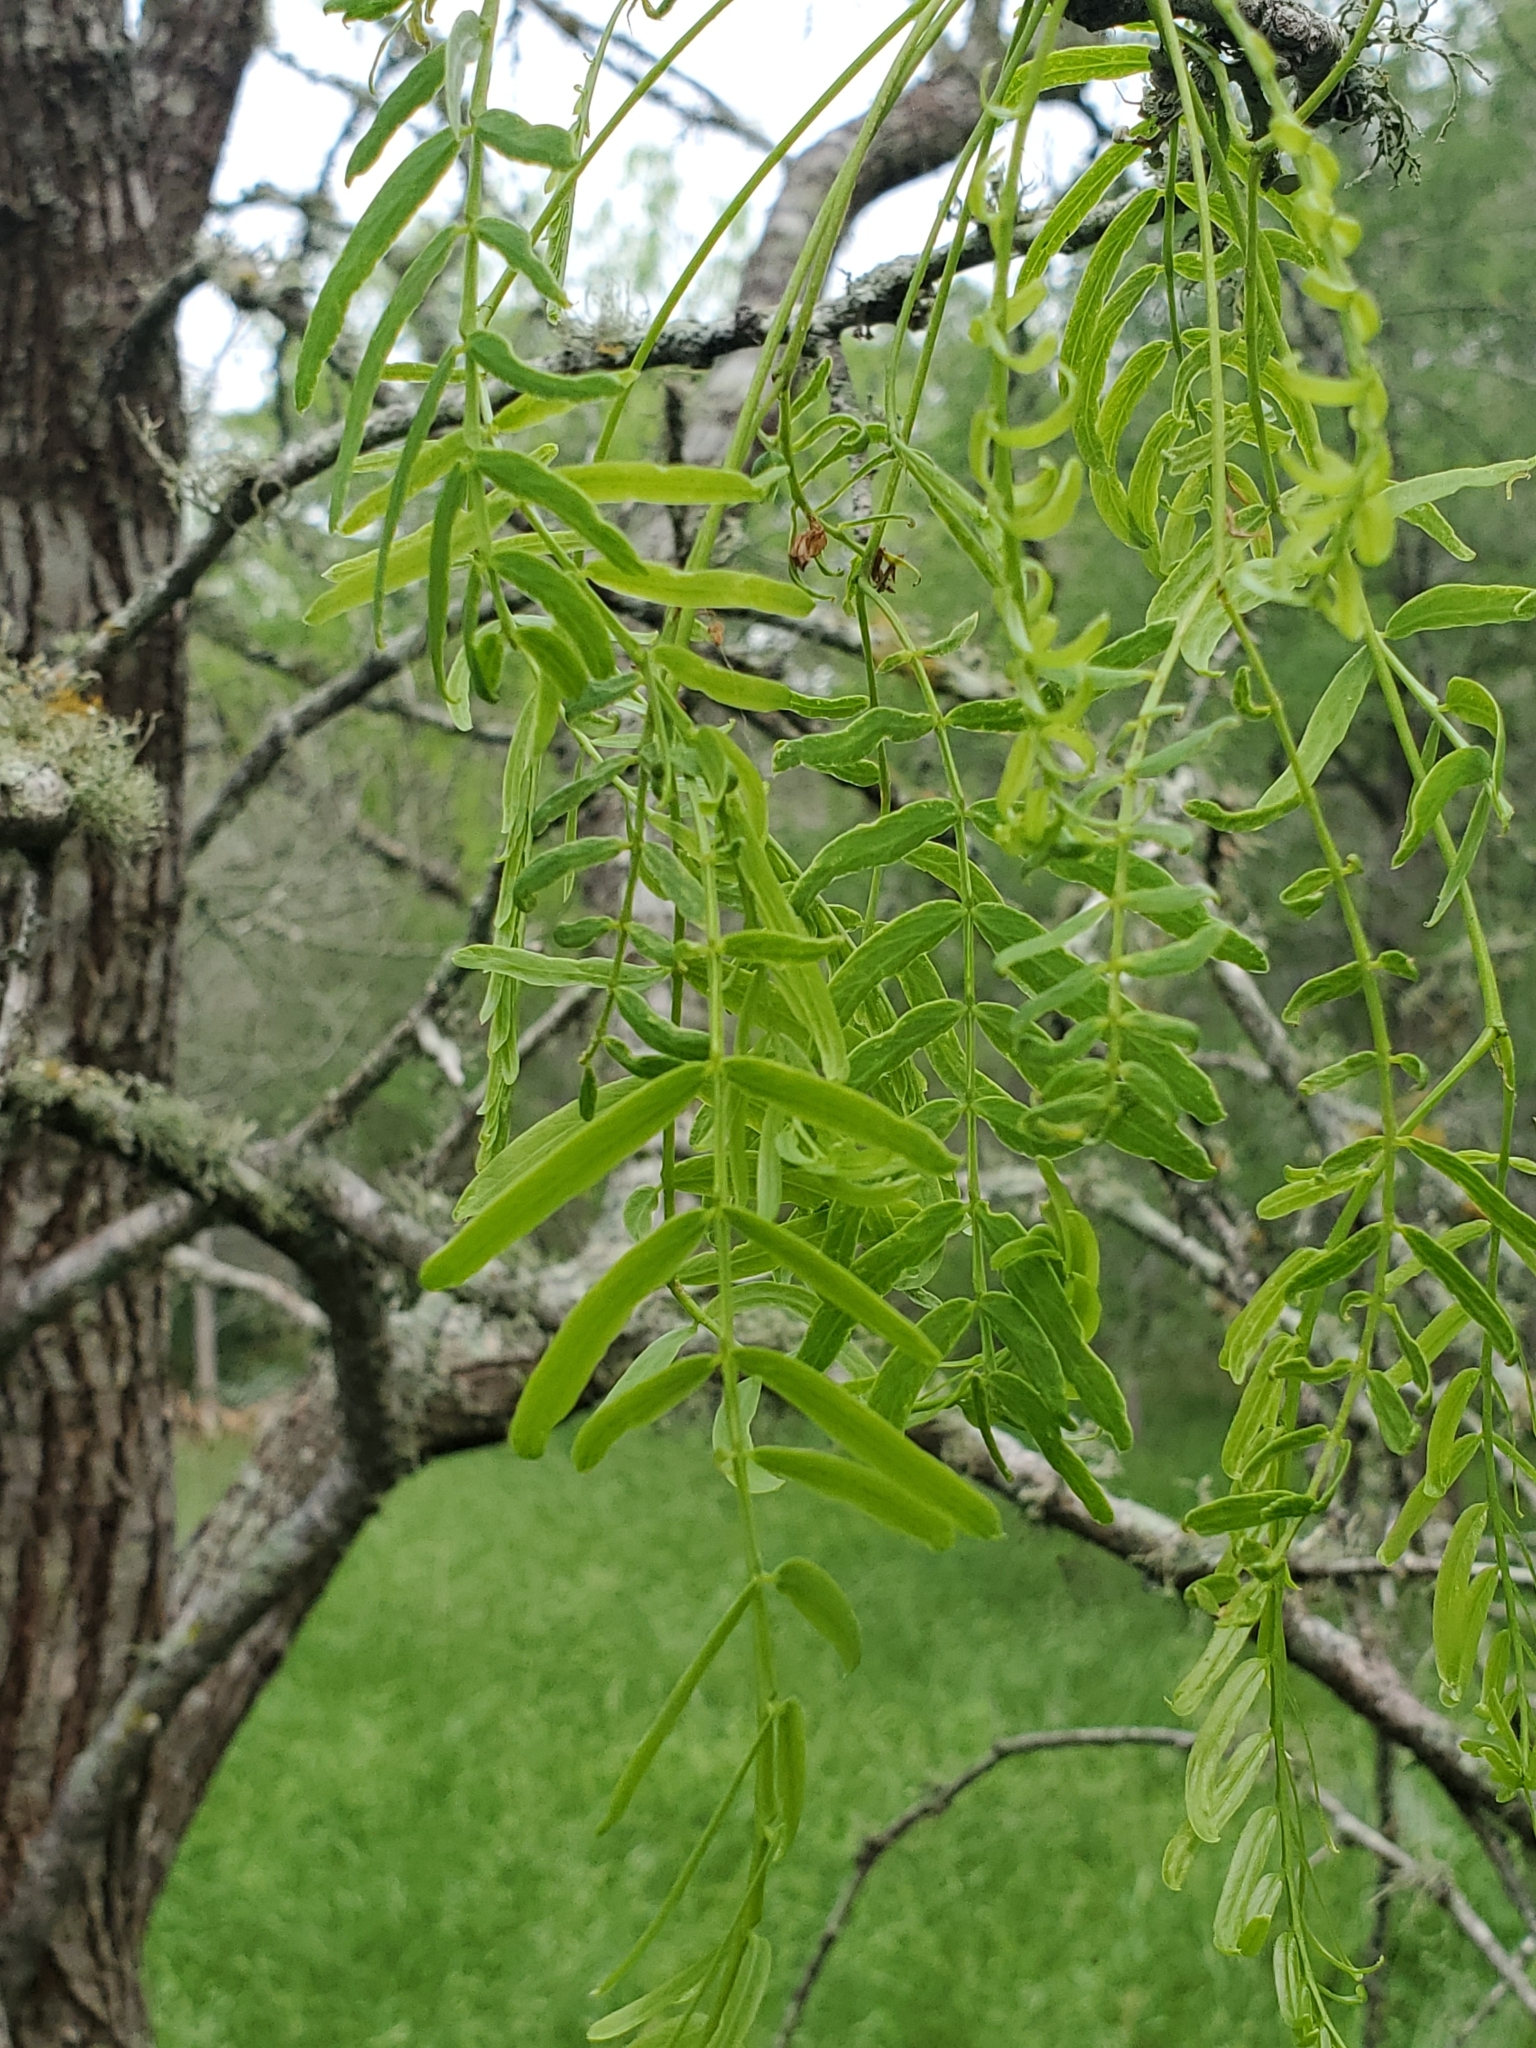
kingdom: Plantae
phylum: Tracheophyta
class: Magnoliopsida
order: Fabales
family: Fabaceae
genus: Prosopis
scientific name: Prosopis glandulosa
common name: Honey mesquite
